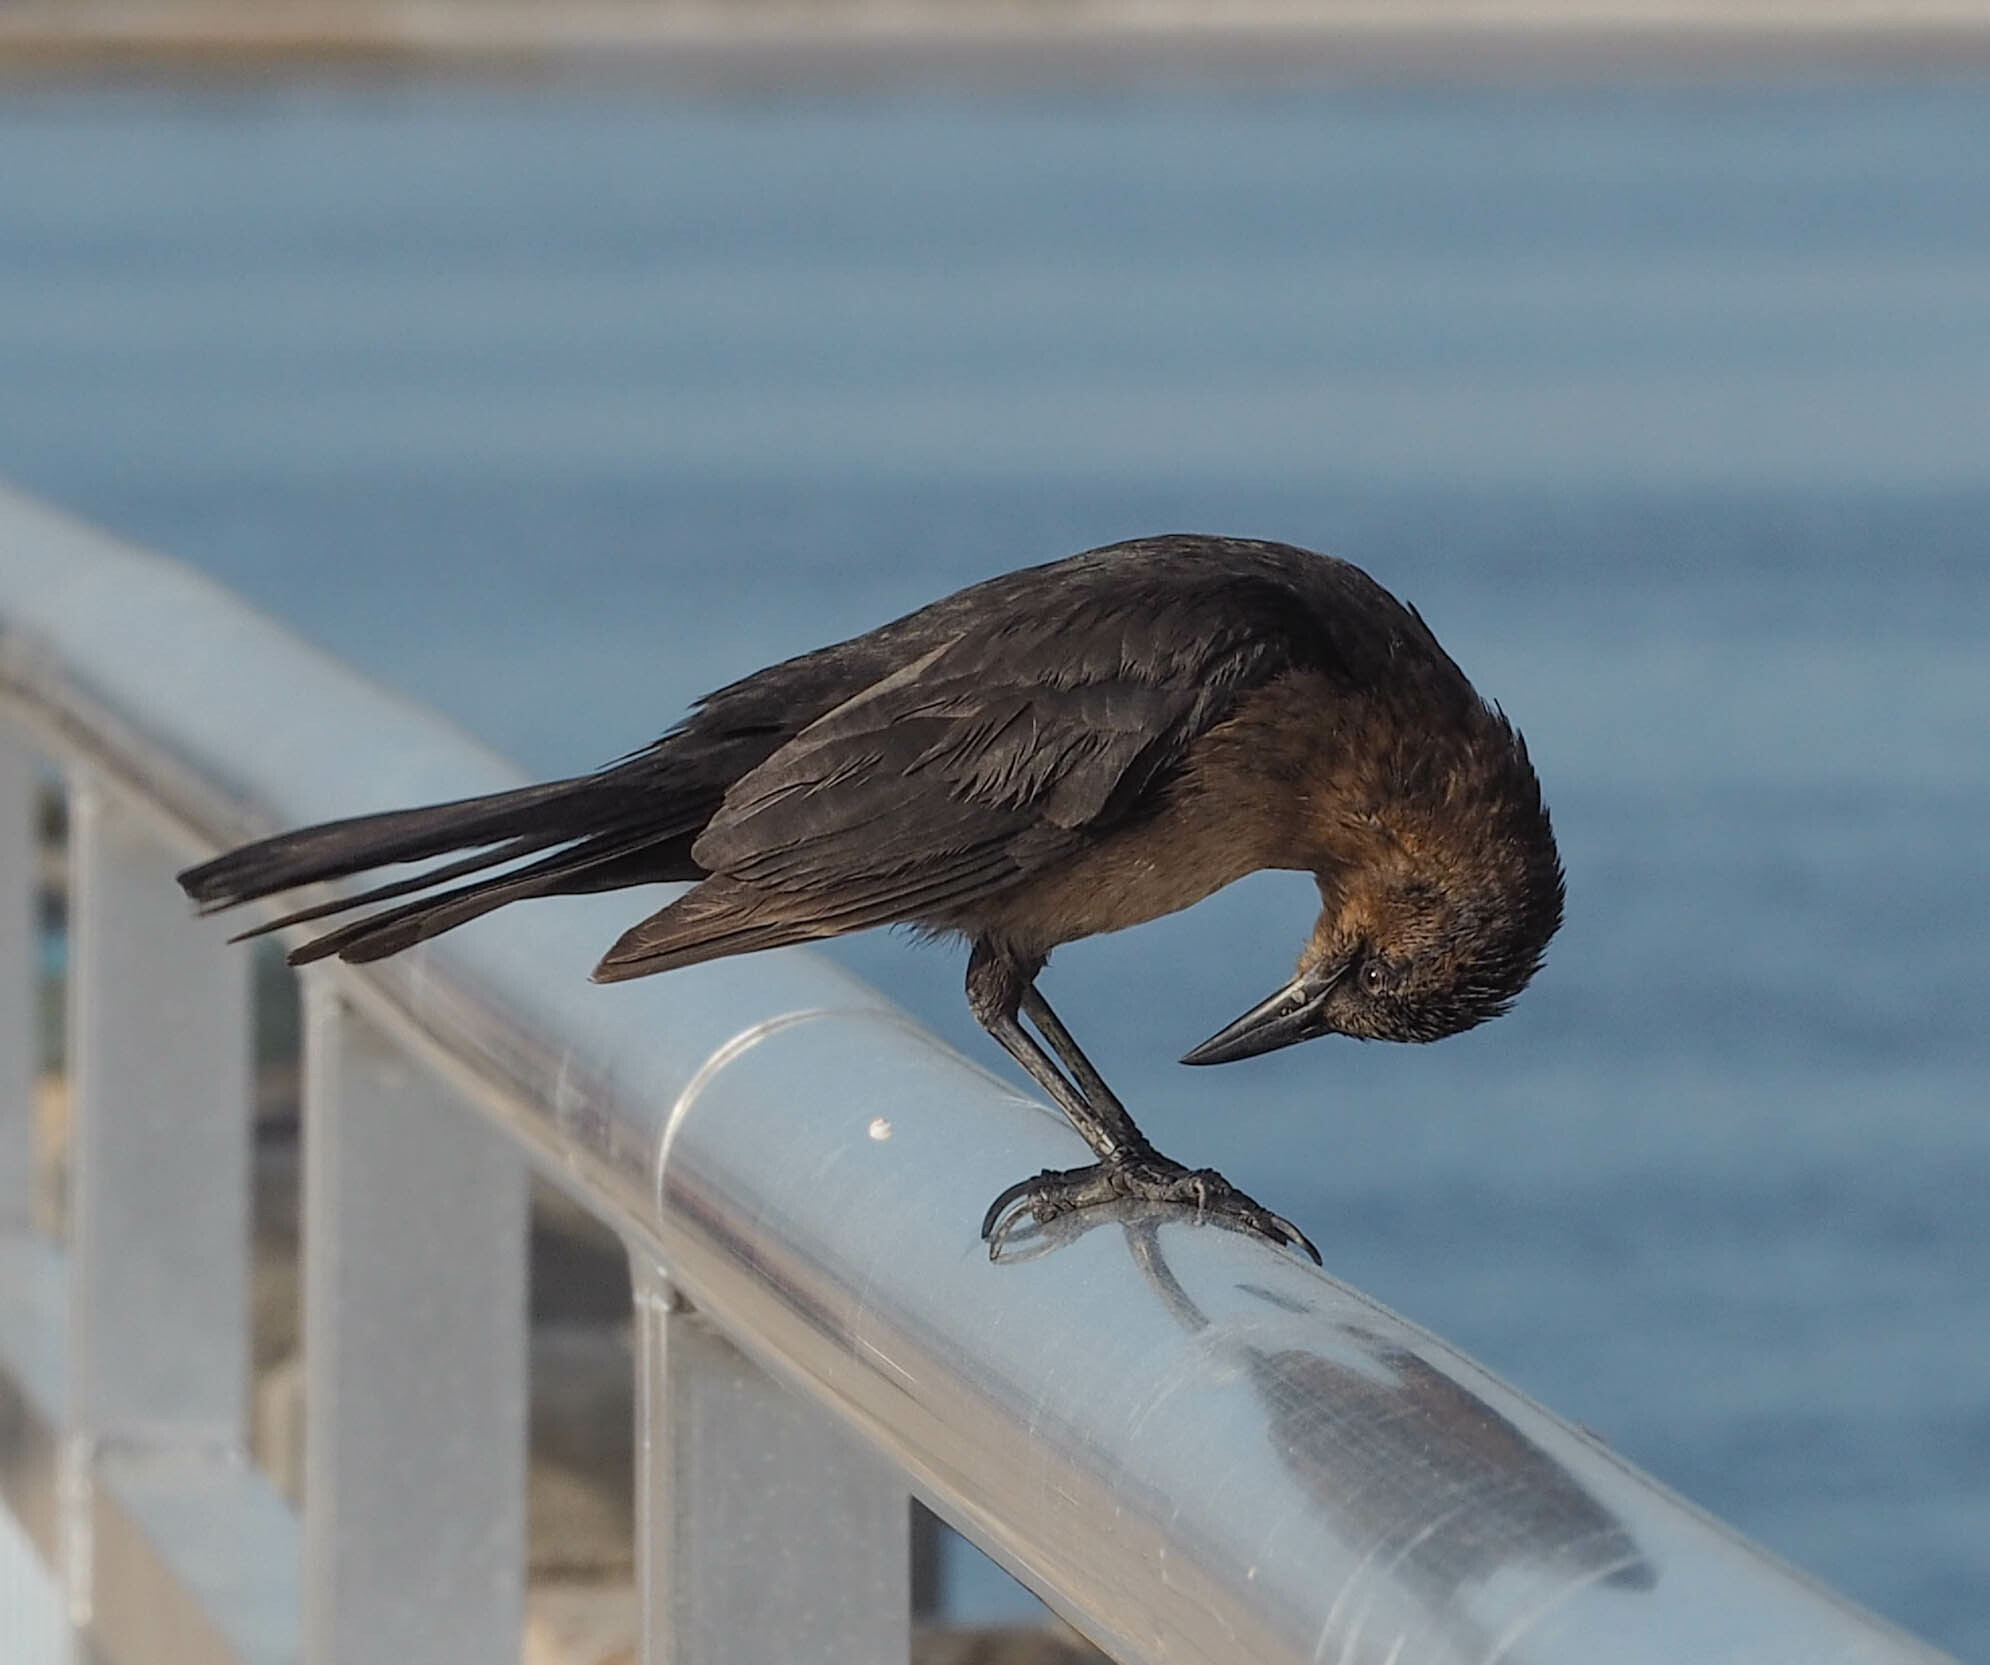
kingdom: Animalia
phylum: Chordata
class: Aves
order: Passeriformes
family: Icteridae
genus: Quiscalus
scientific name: Quiscalus major
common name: Boat-tailed grackle
